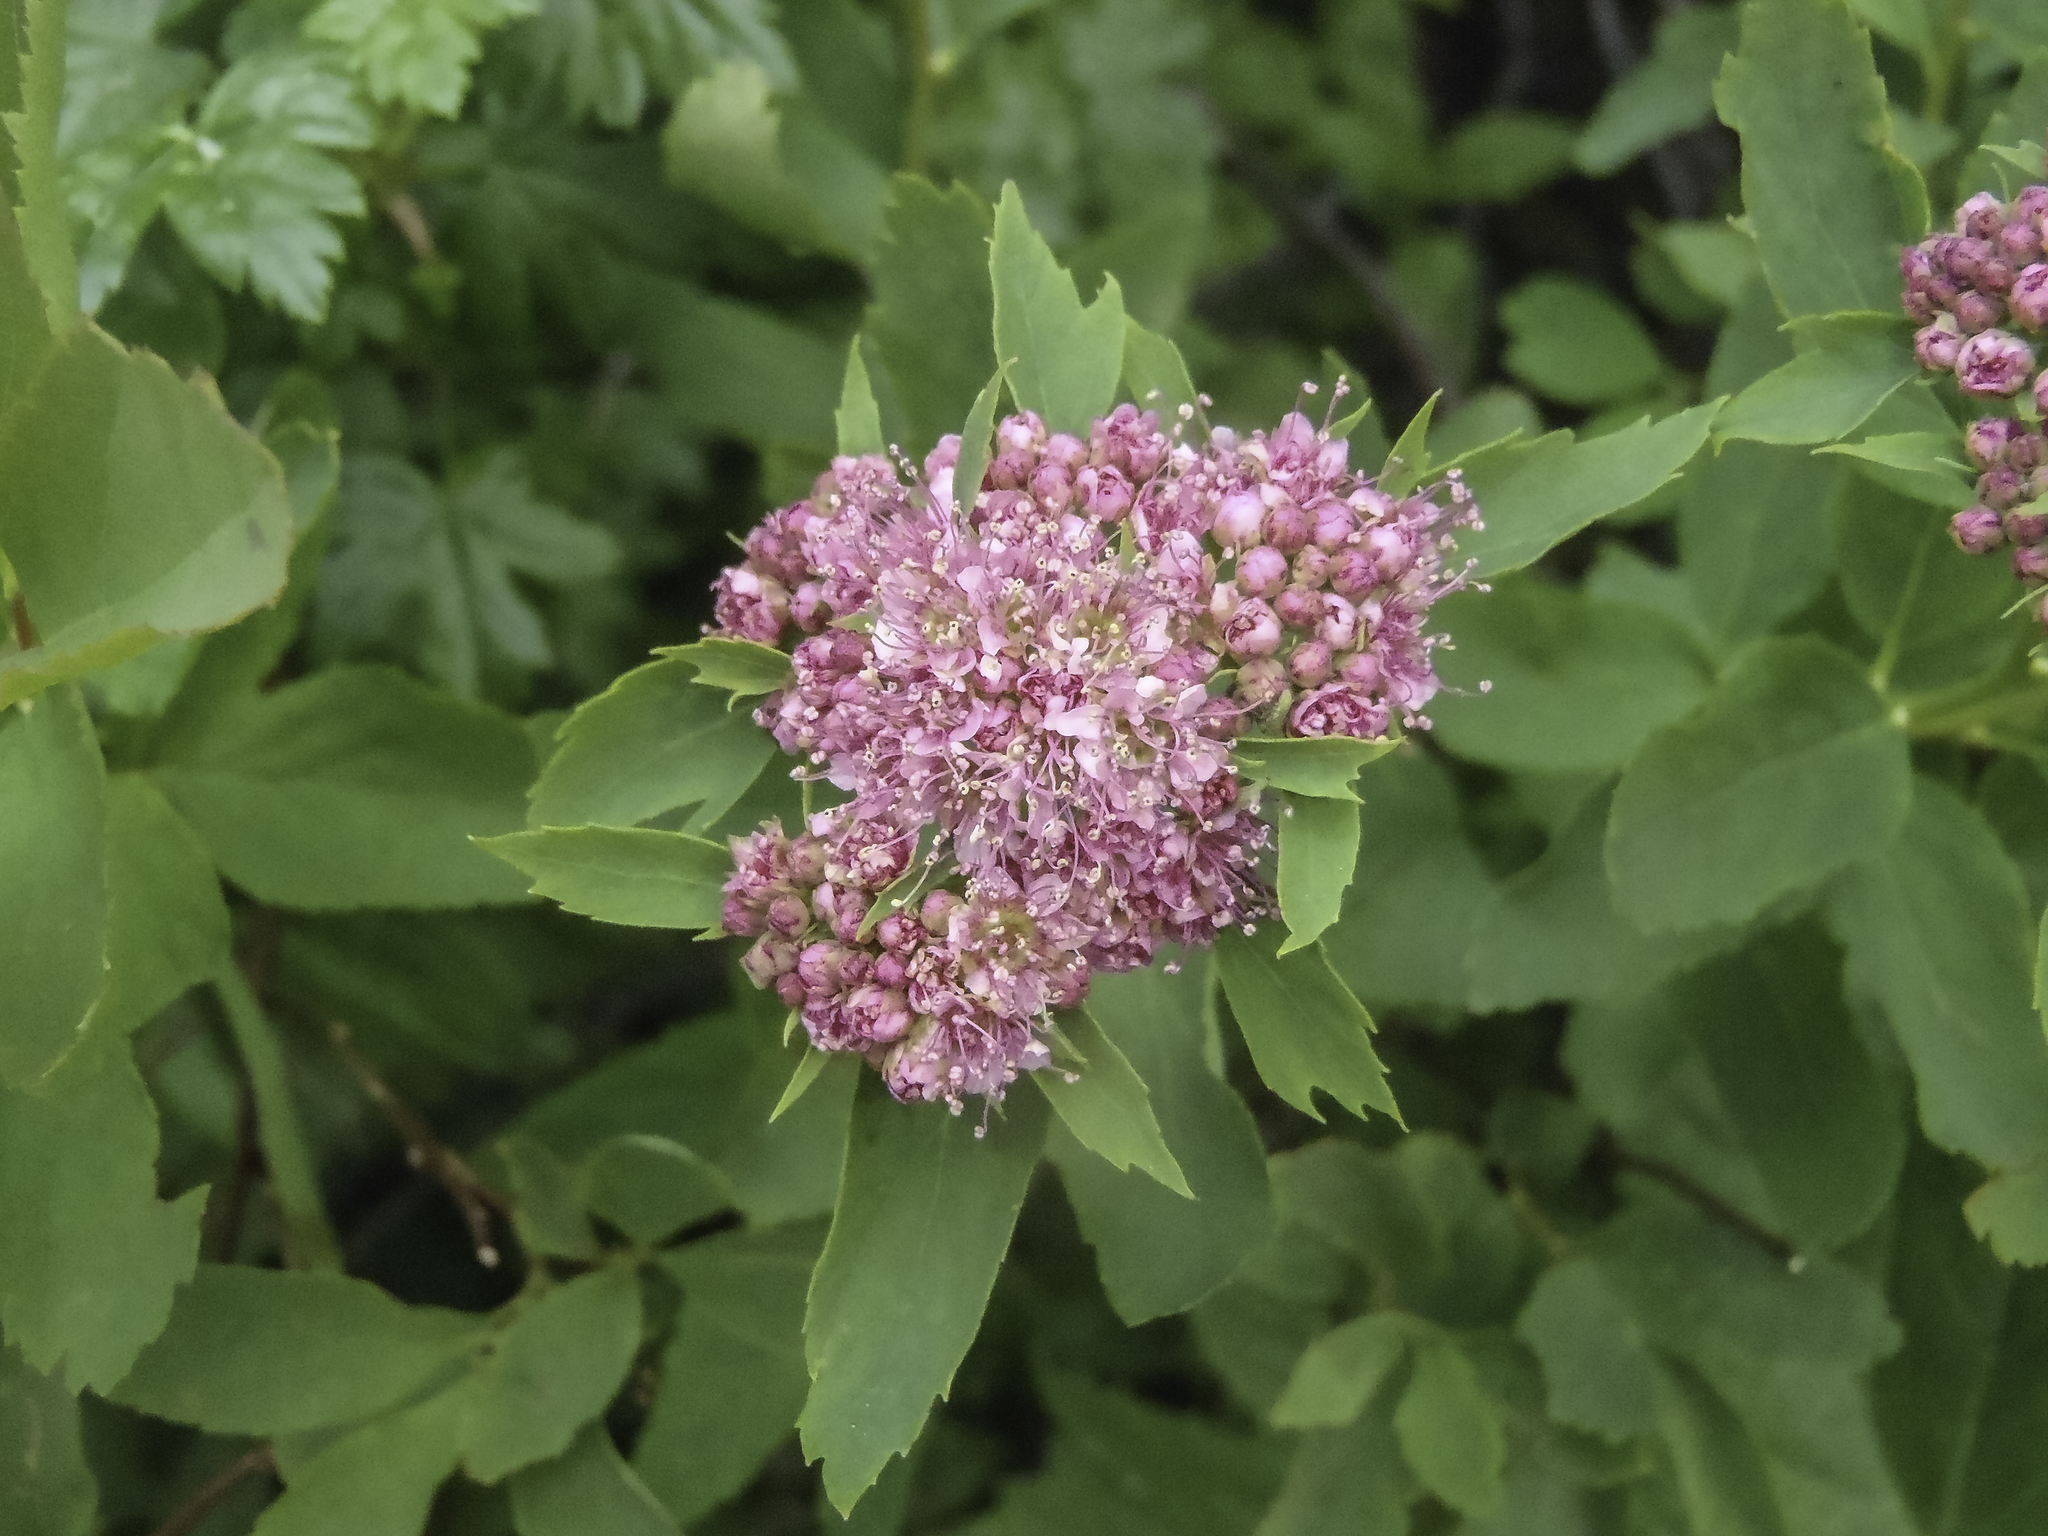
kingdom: Plantae
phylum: Tracheophyta
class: Magnoliopsida
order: Rosales
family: Rosaceae
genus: Spiraea
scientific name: Spiraea splendens
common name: Subalpine meadowsweet
